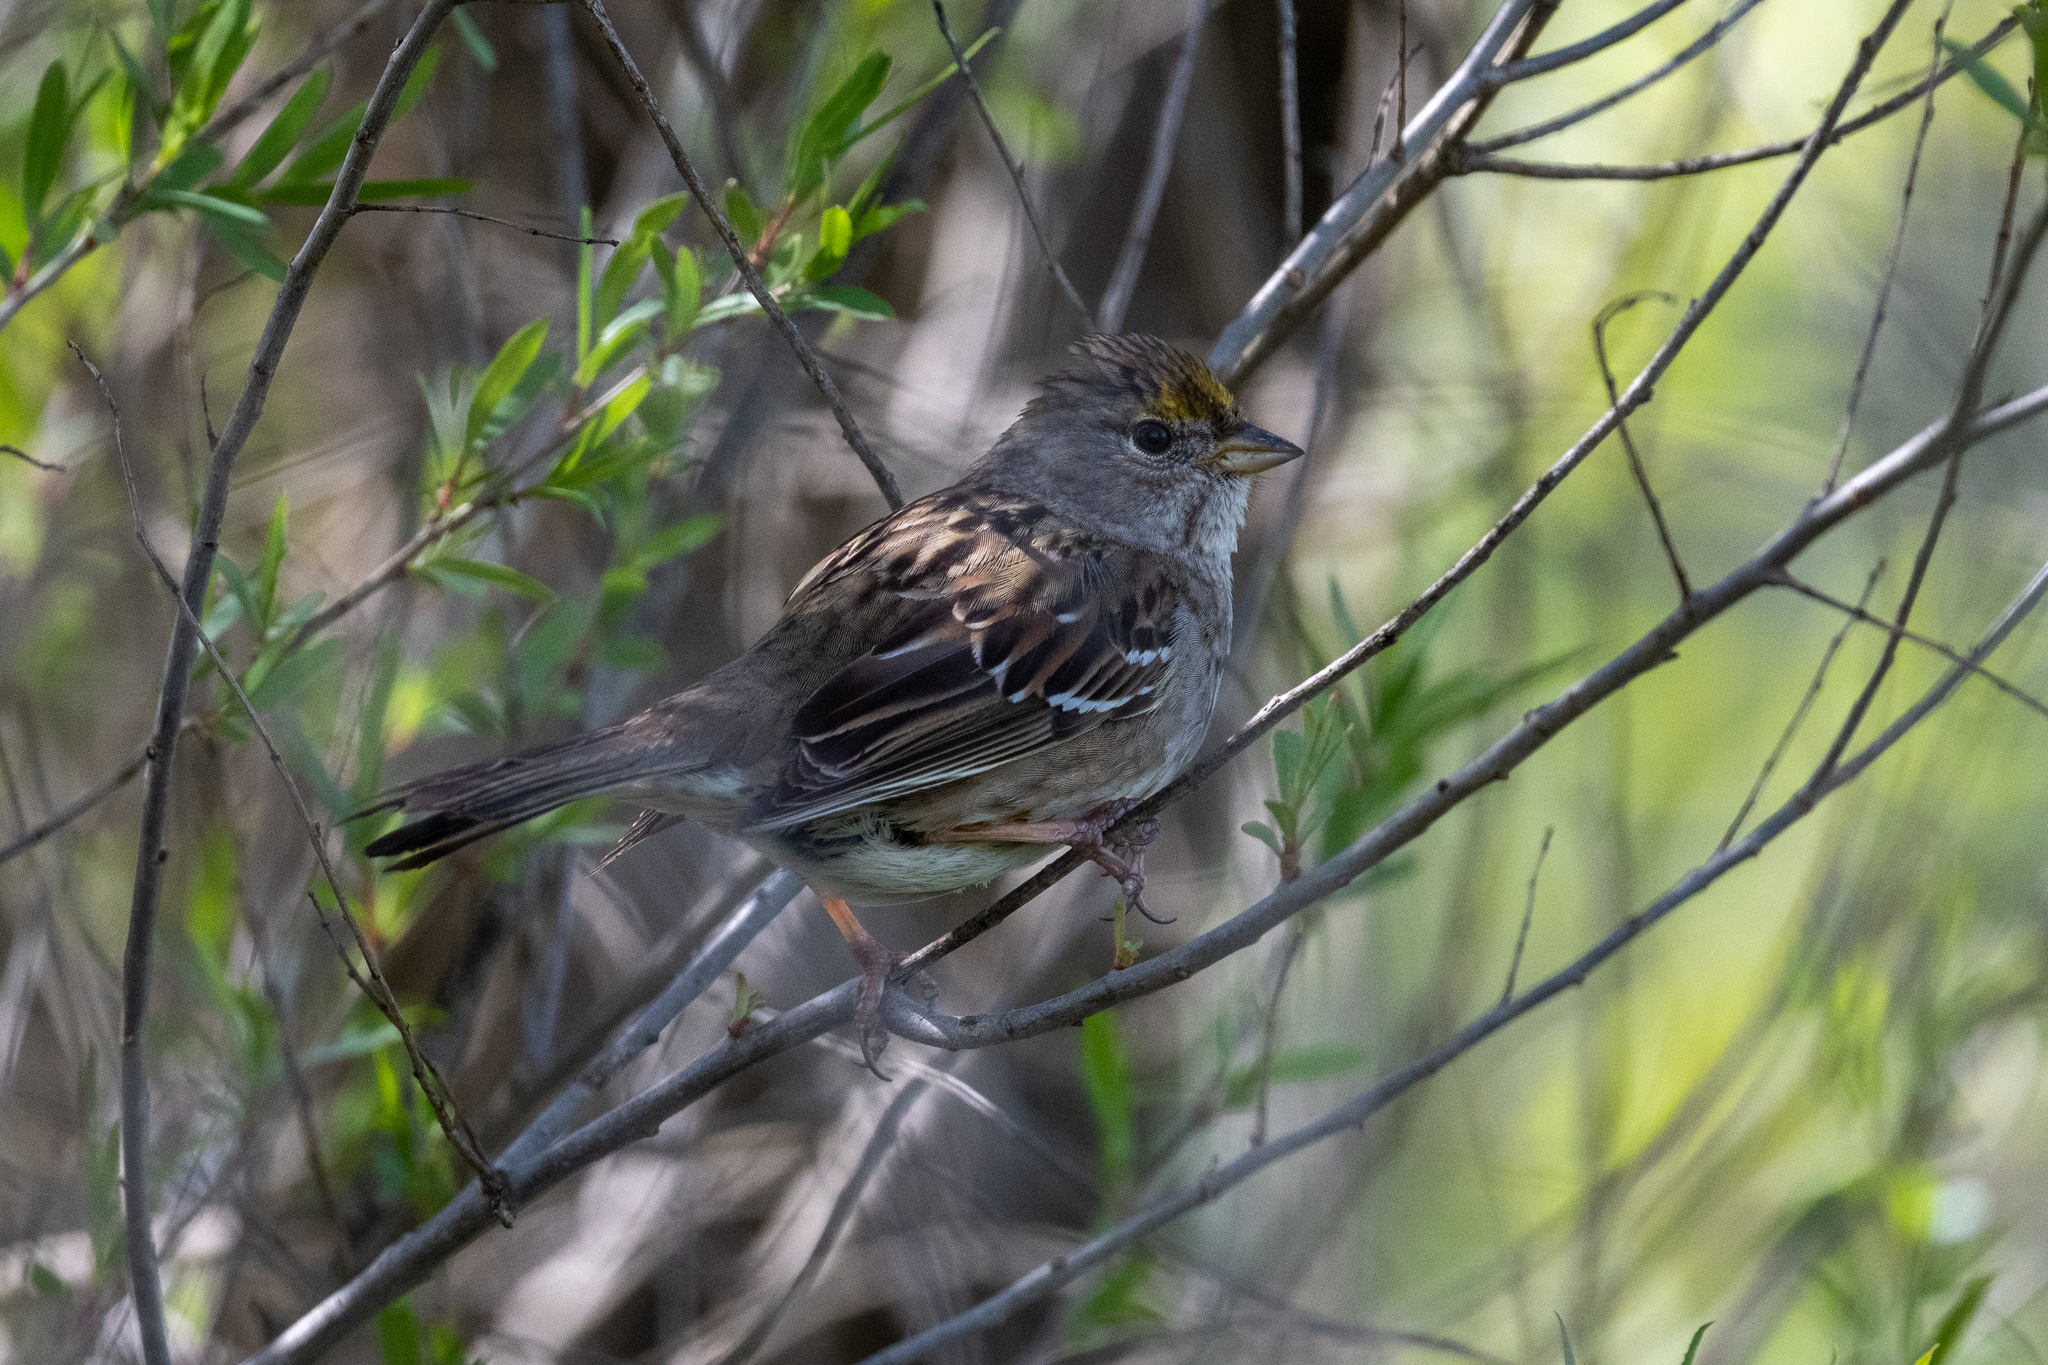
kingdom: Animalia
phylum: Chordata
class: Aves
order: Passeriformes
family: Passerellidae
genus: Zonotrichia
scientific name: Zonotrichia atricapilla
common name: Golden-crowned sparrow
